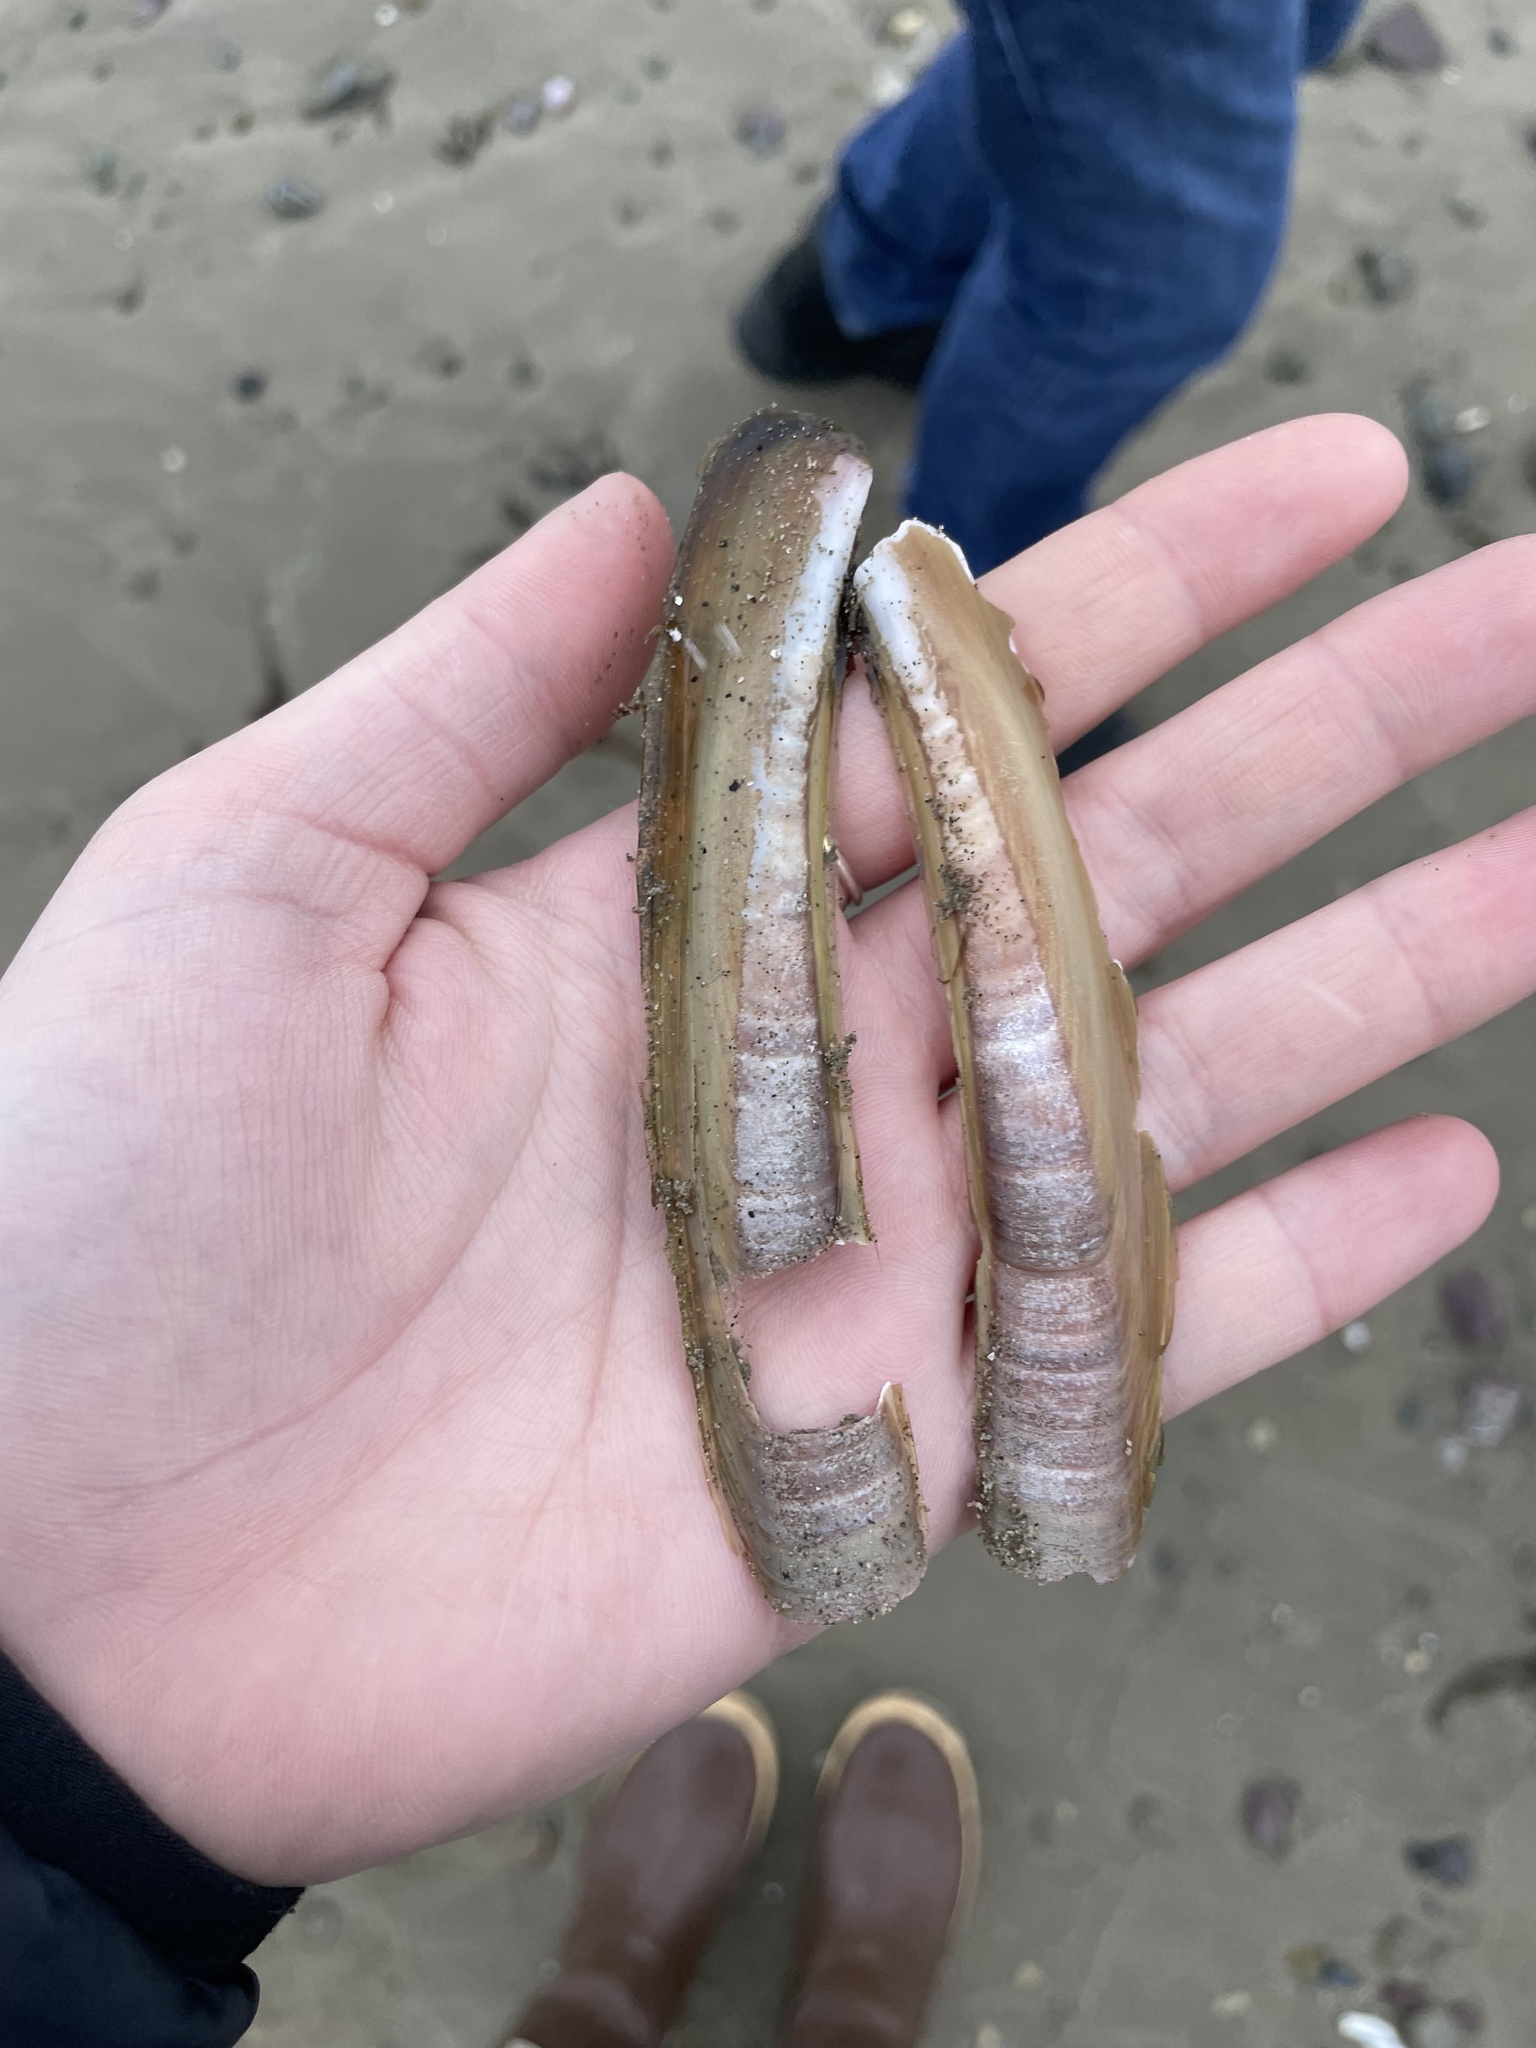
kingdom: Animalia
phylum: Mollusca
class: Bivalvia
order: Adapedonta
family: Pharidae
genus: Ensis
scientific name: Ensis leei
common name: American jack knife clam
